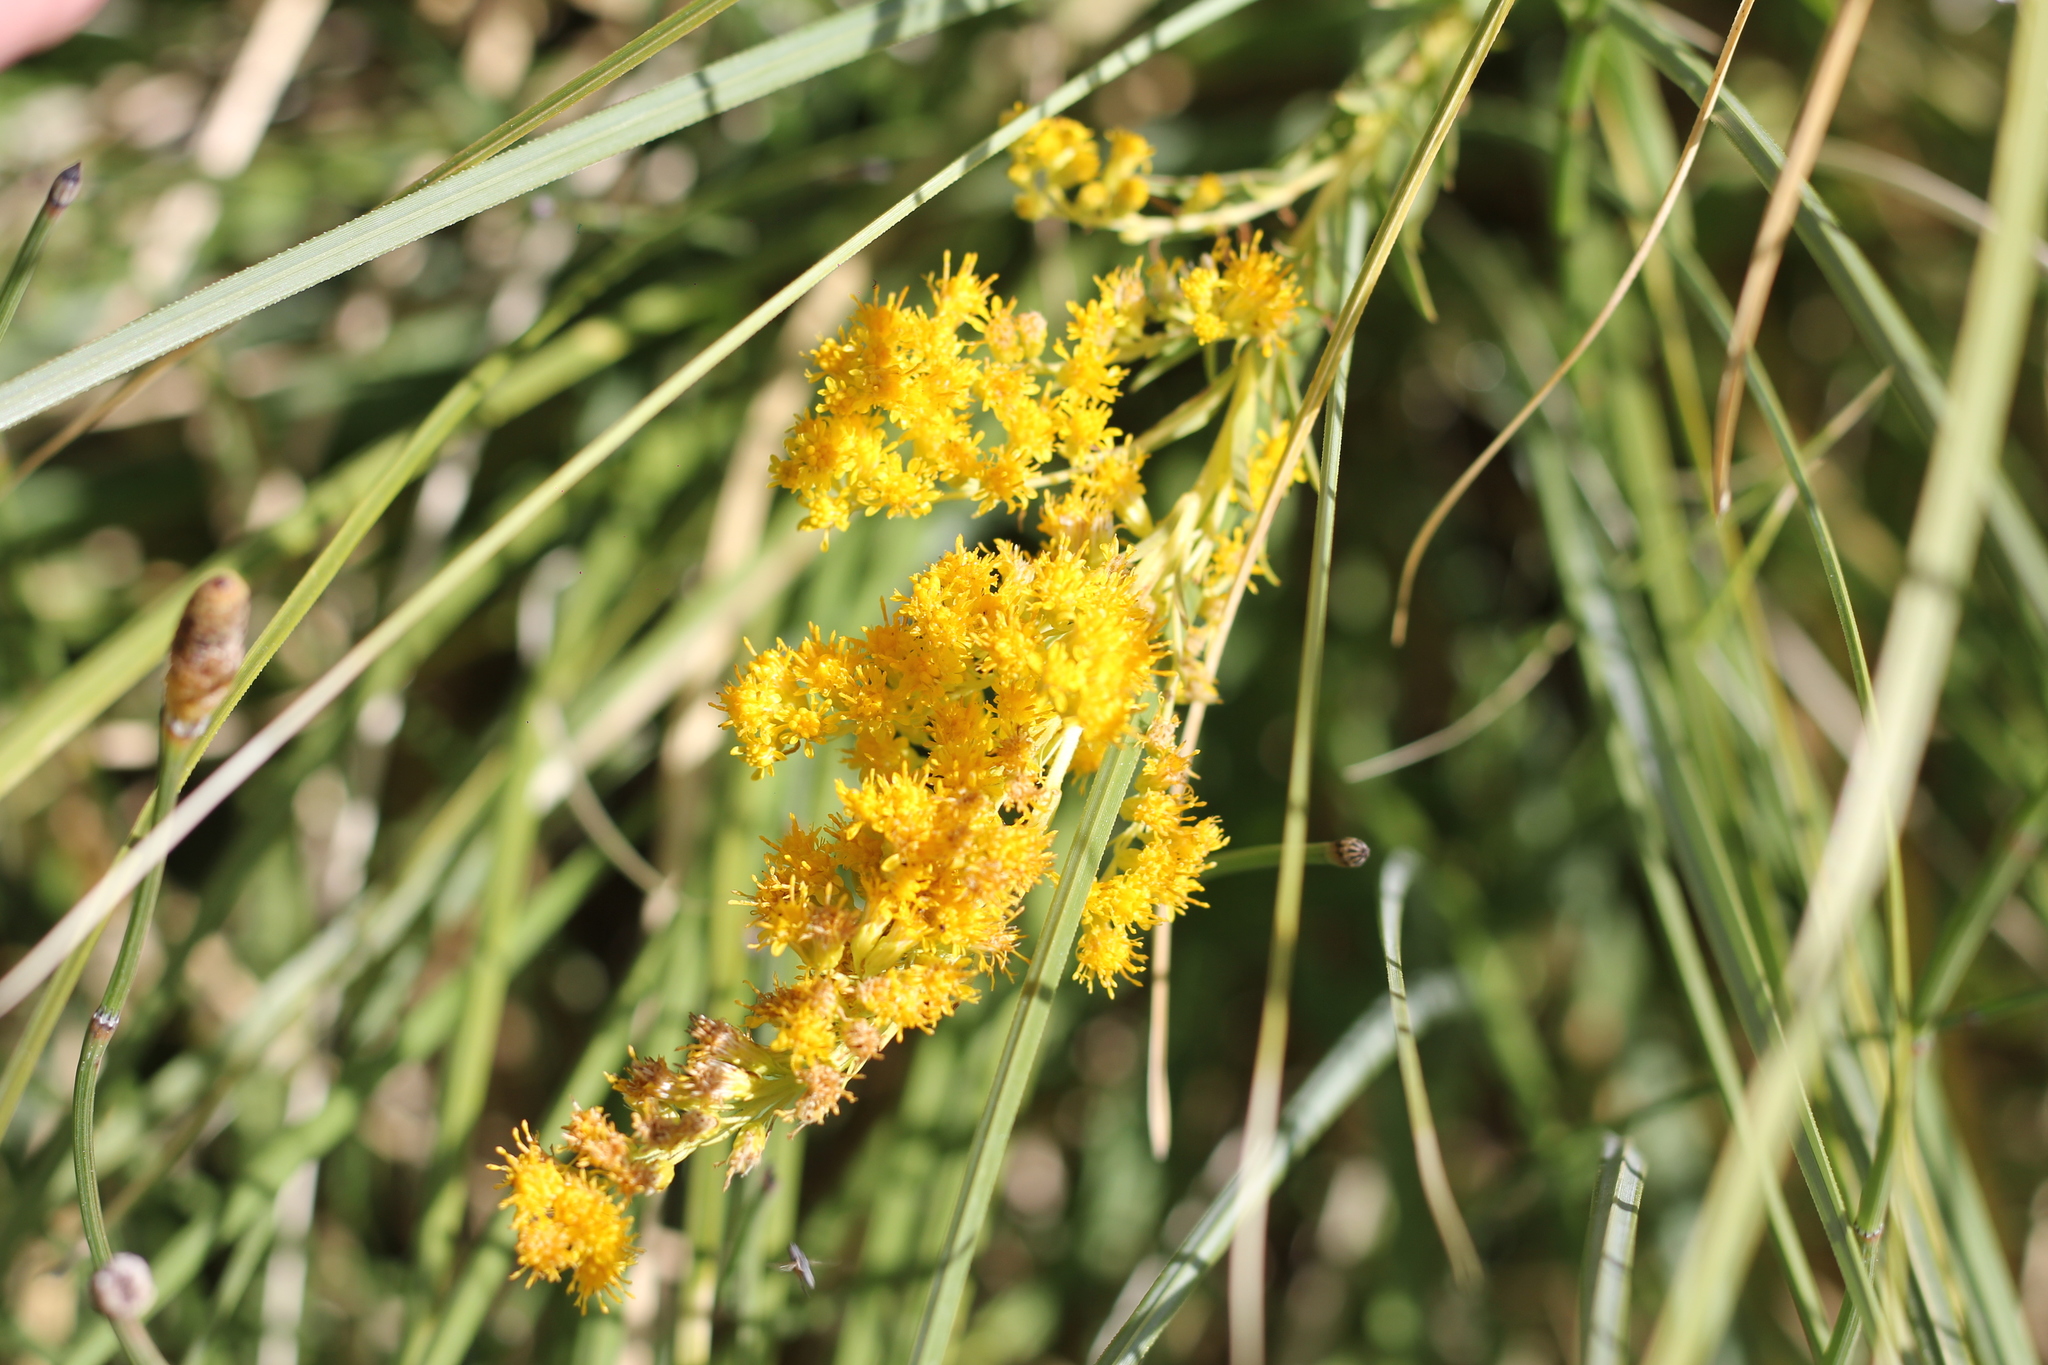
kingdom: Plantae
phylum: Tracheophyta
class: Magnoliopsida
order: Asterales
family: Asteraceae
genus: Solidago
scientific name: Solidago chilensis
